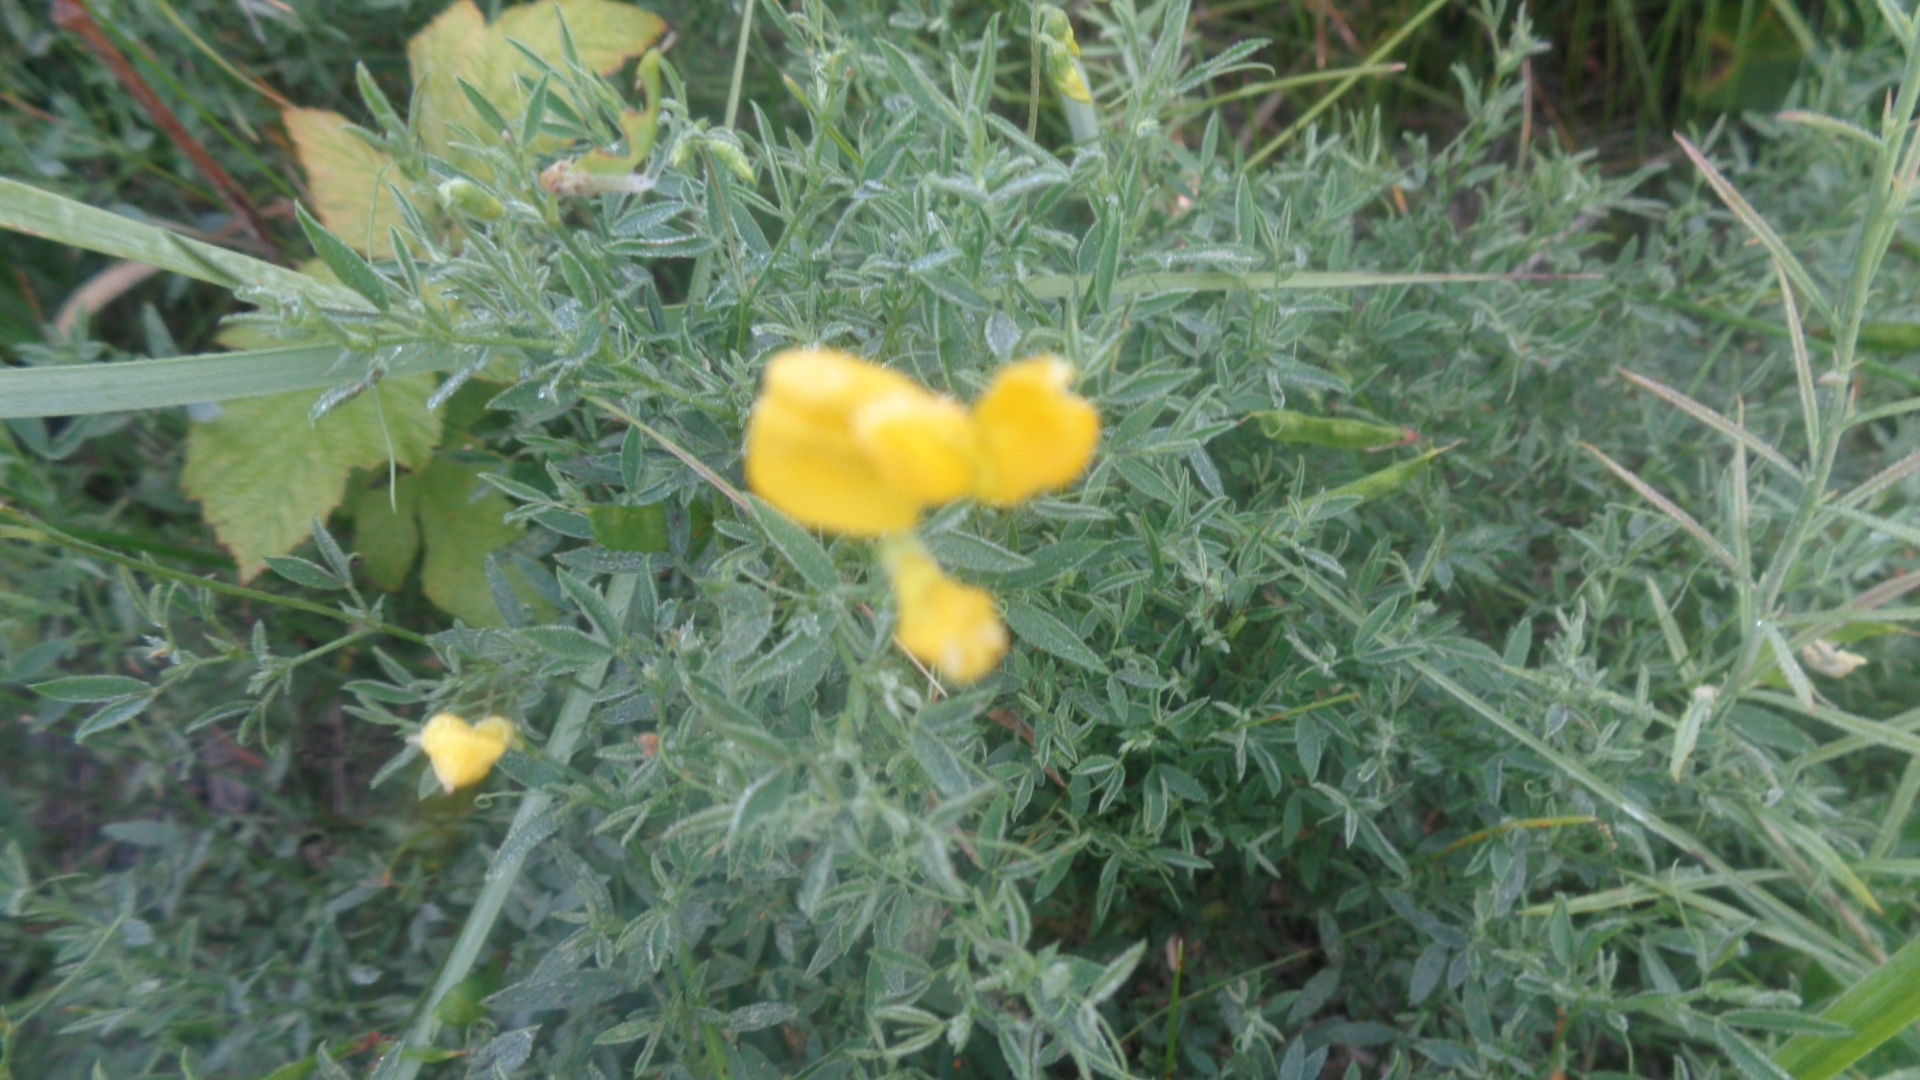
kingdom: Plantae
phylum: Tracheophyta
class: Magnoliopsida
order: Fabales
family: Fabaceae
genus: Lathyrus
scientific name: Lathyrus pratensis
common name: Meadow vetchling
